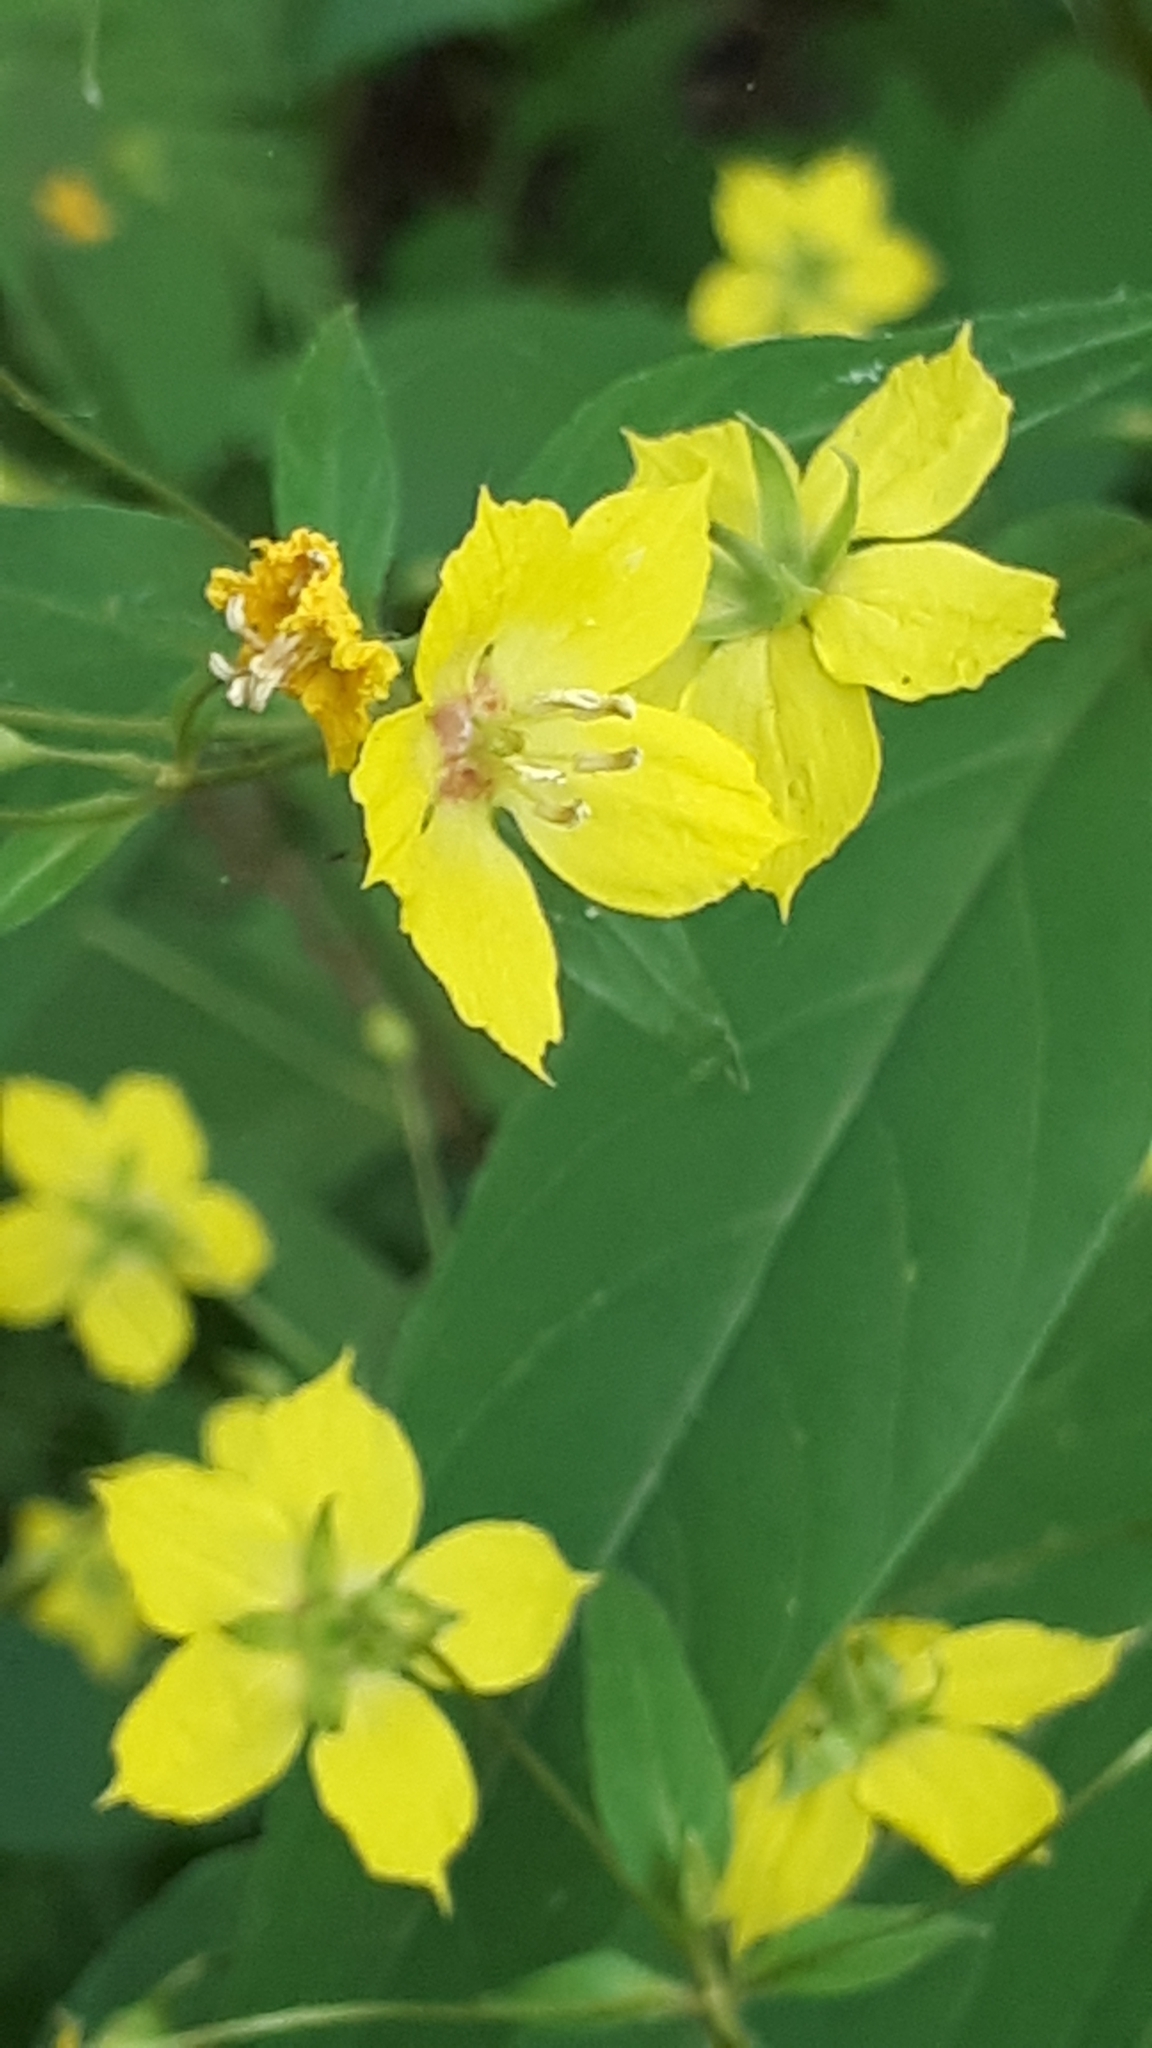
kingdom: Plantae
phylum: Tracheophyta
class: Magnoliopsida
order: Ericales
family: Primulaceae
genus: Lysimachia
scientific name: Lysimachia ciliata
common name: Fringed loosestrife
